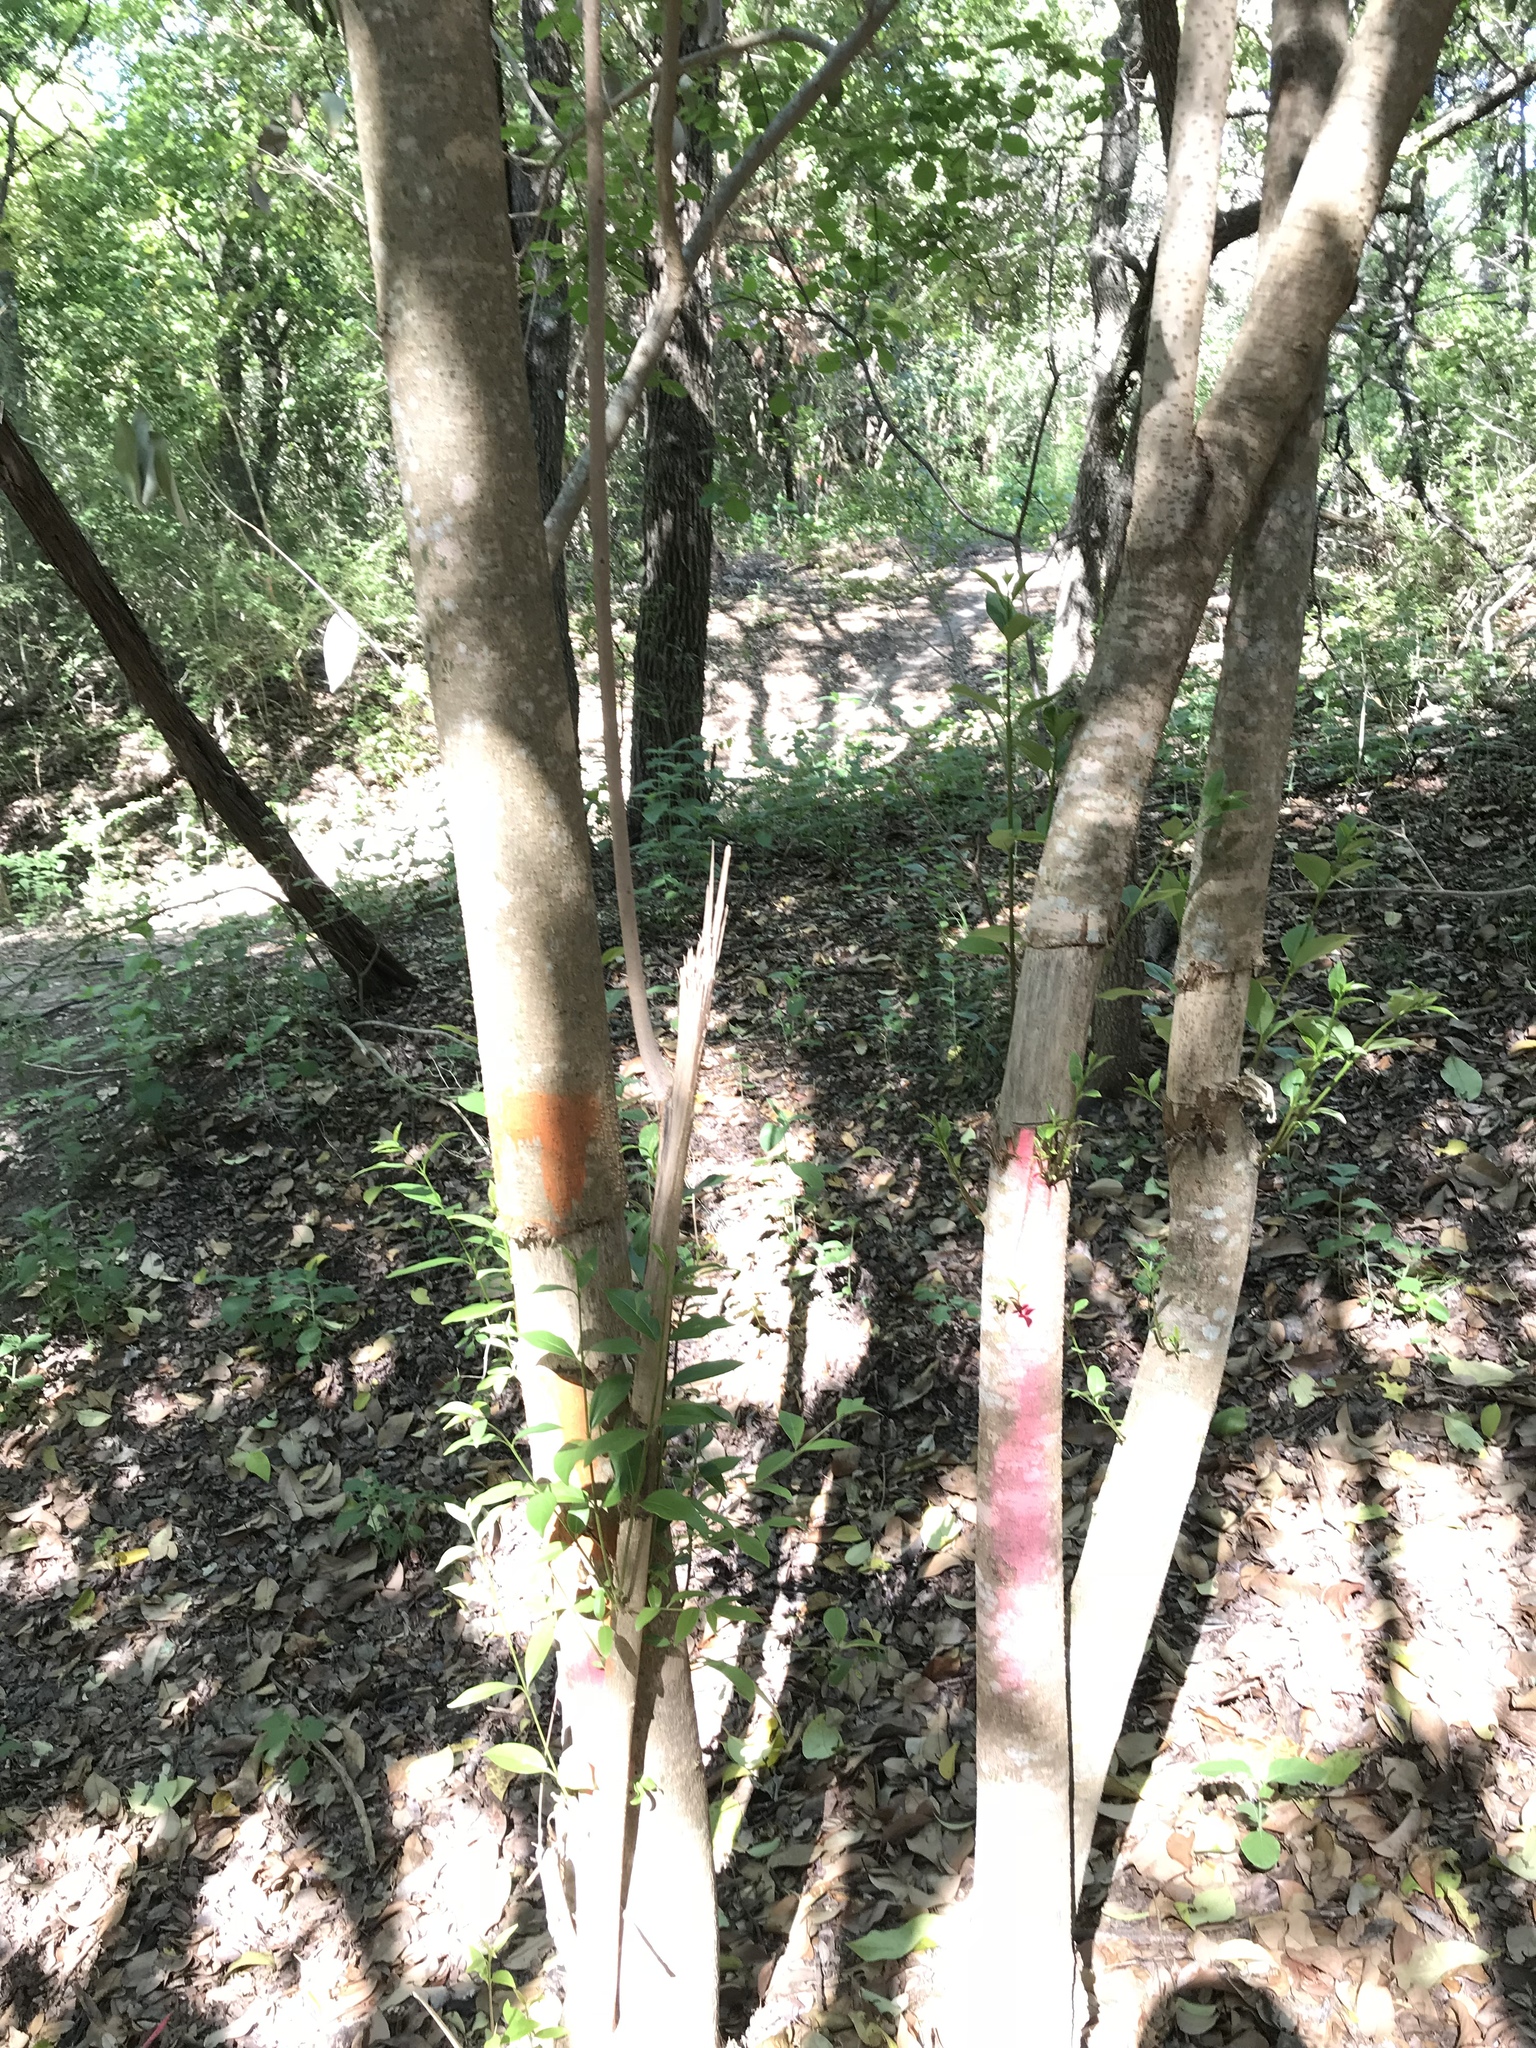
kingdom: Plantae
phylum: Tracheophyta
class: Magnoliopsida
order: Lamiales
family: Oleaceae
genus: Ligustrum
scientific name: Ligustrum lucidum
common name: Glossy privet
